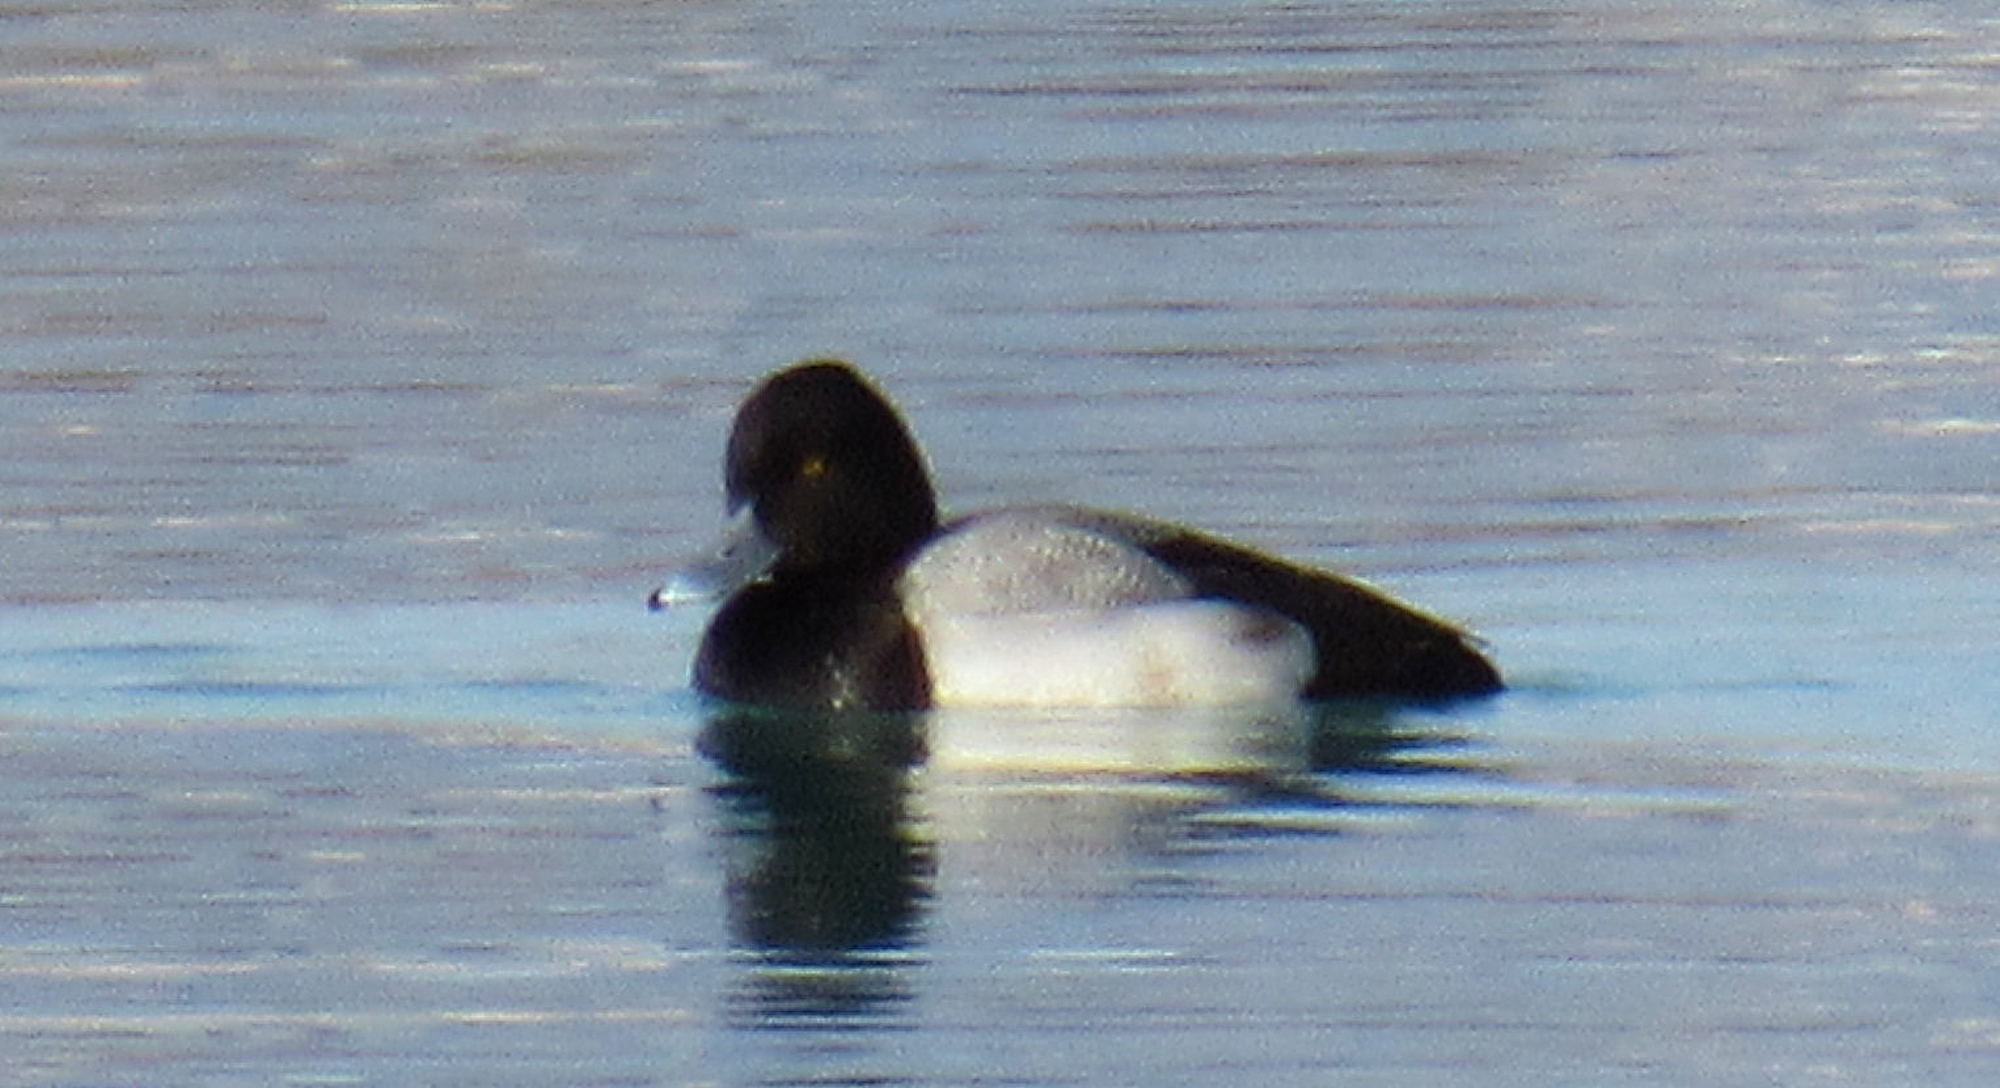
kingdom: Animalia
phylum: Chordata
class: Aves
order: Anseriformes
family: Anatidae
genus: Aythya
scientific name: Aythya affinis
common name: Lesser scaup
